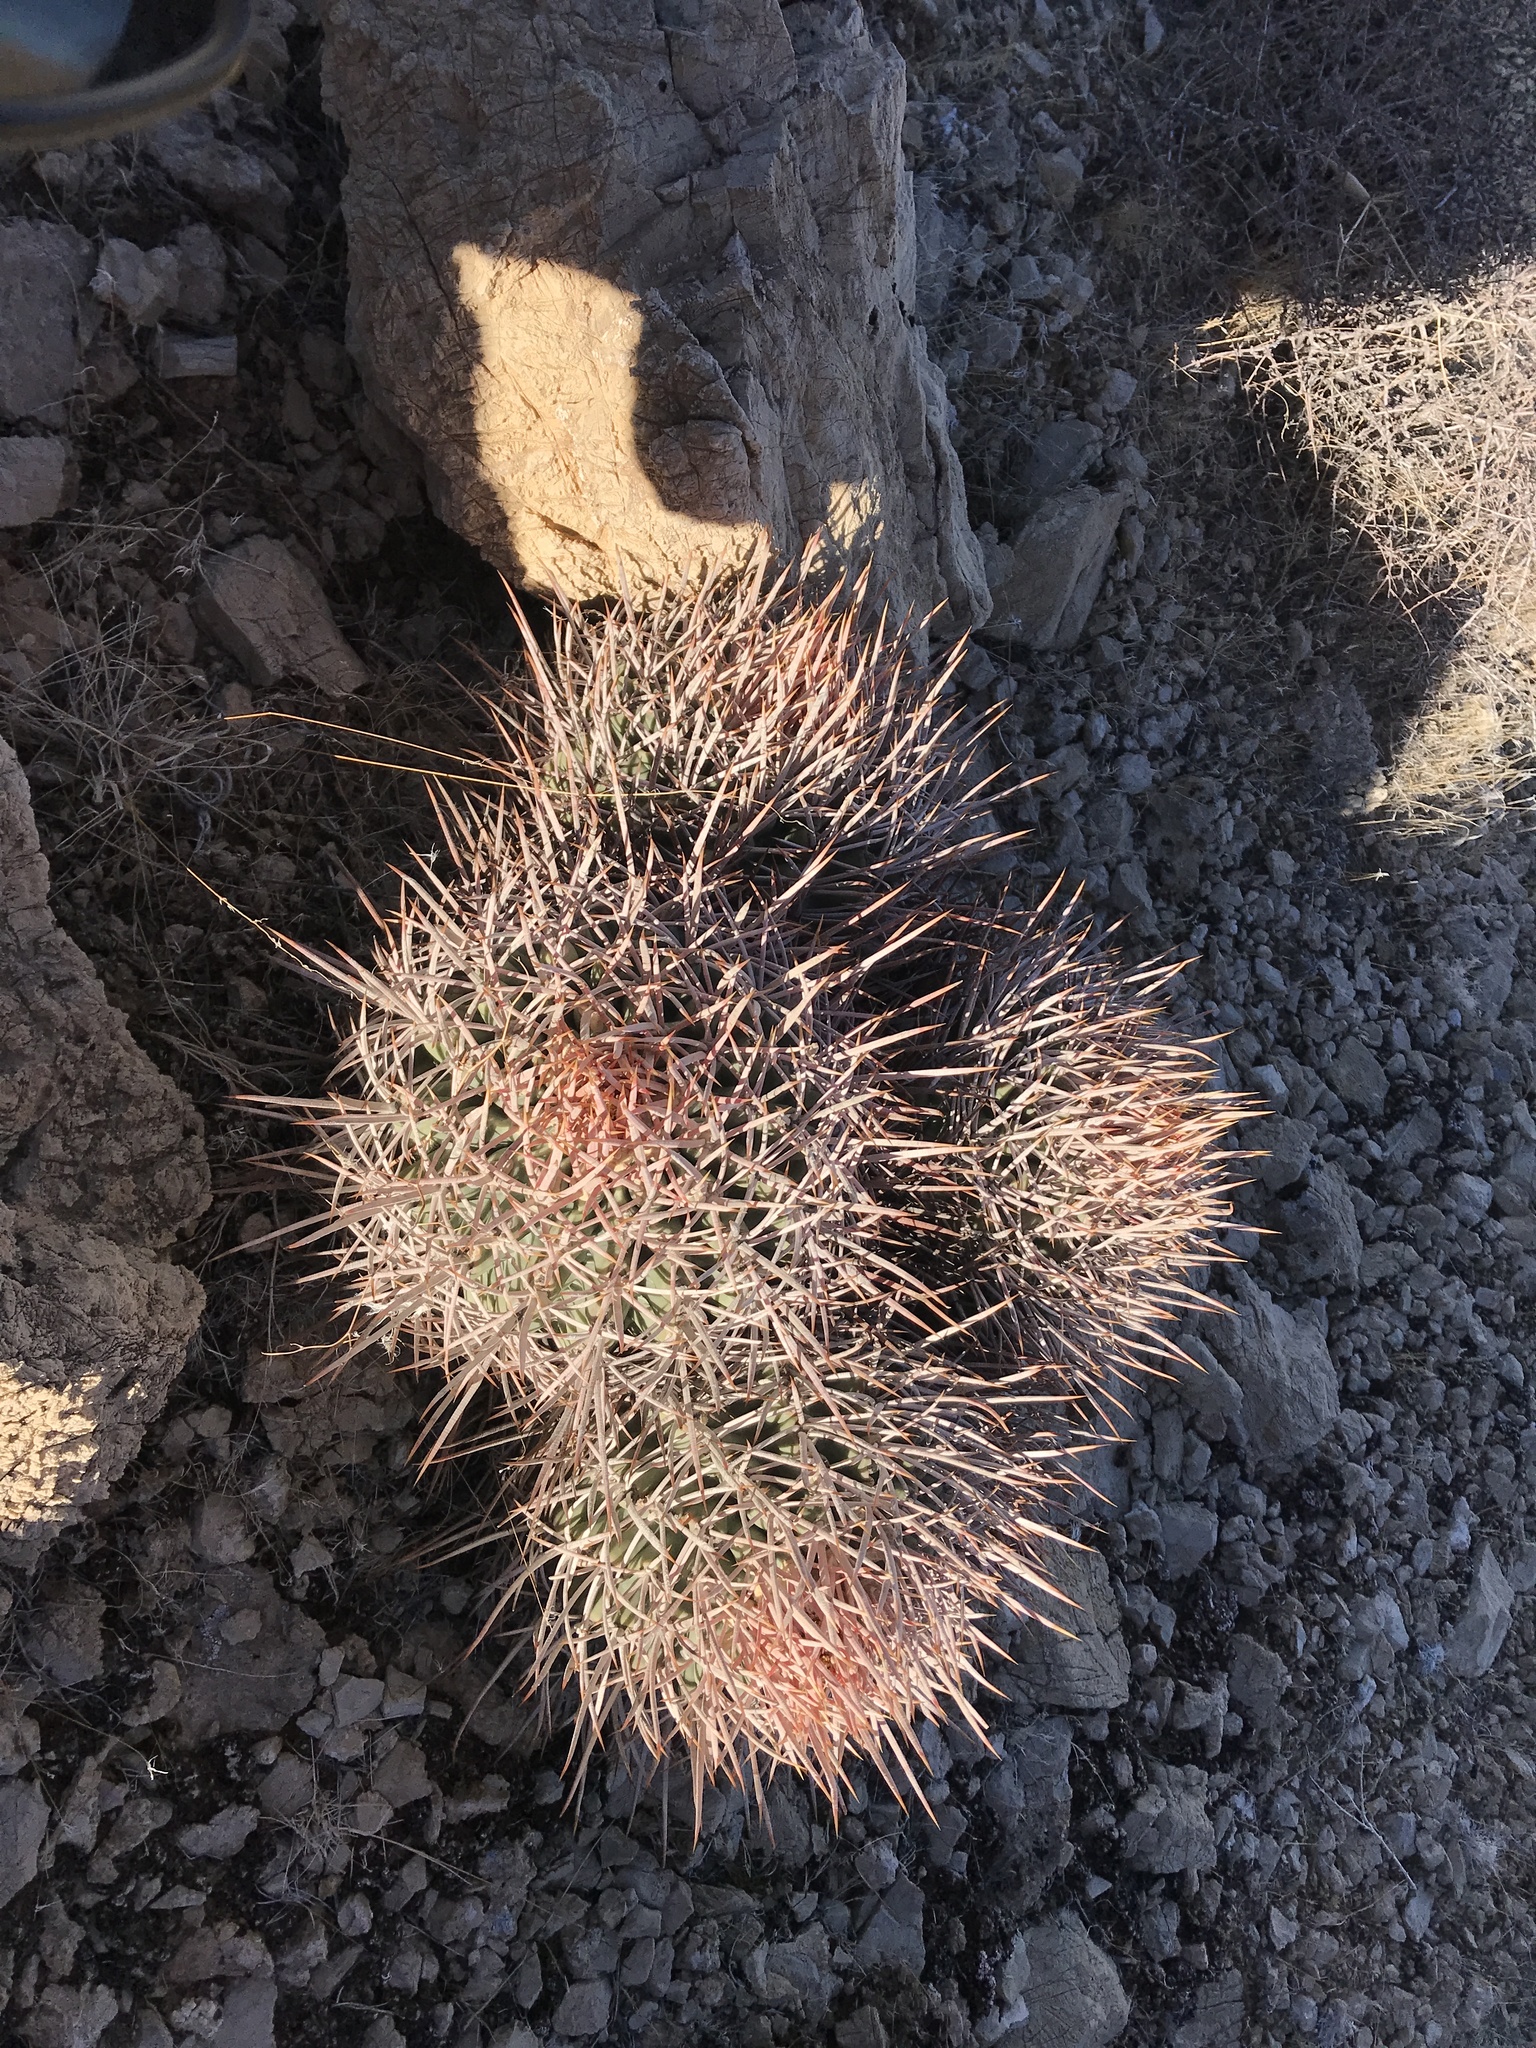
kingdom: Plantae
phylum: Tracheophyta
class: Magnoliopsida
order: Caryophyllales
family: Cactaceae
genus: Echinocactus
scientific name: Echinocactus polycephalus
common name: Cottontop cactus
